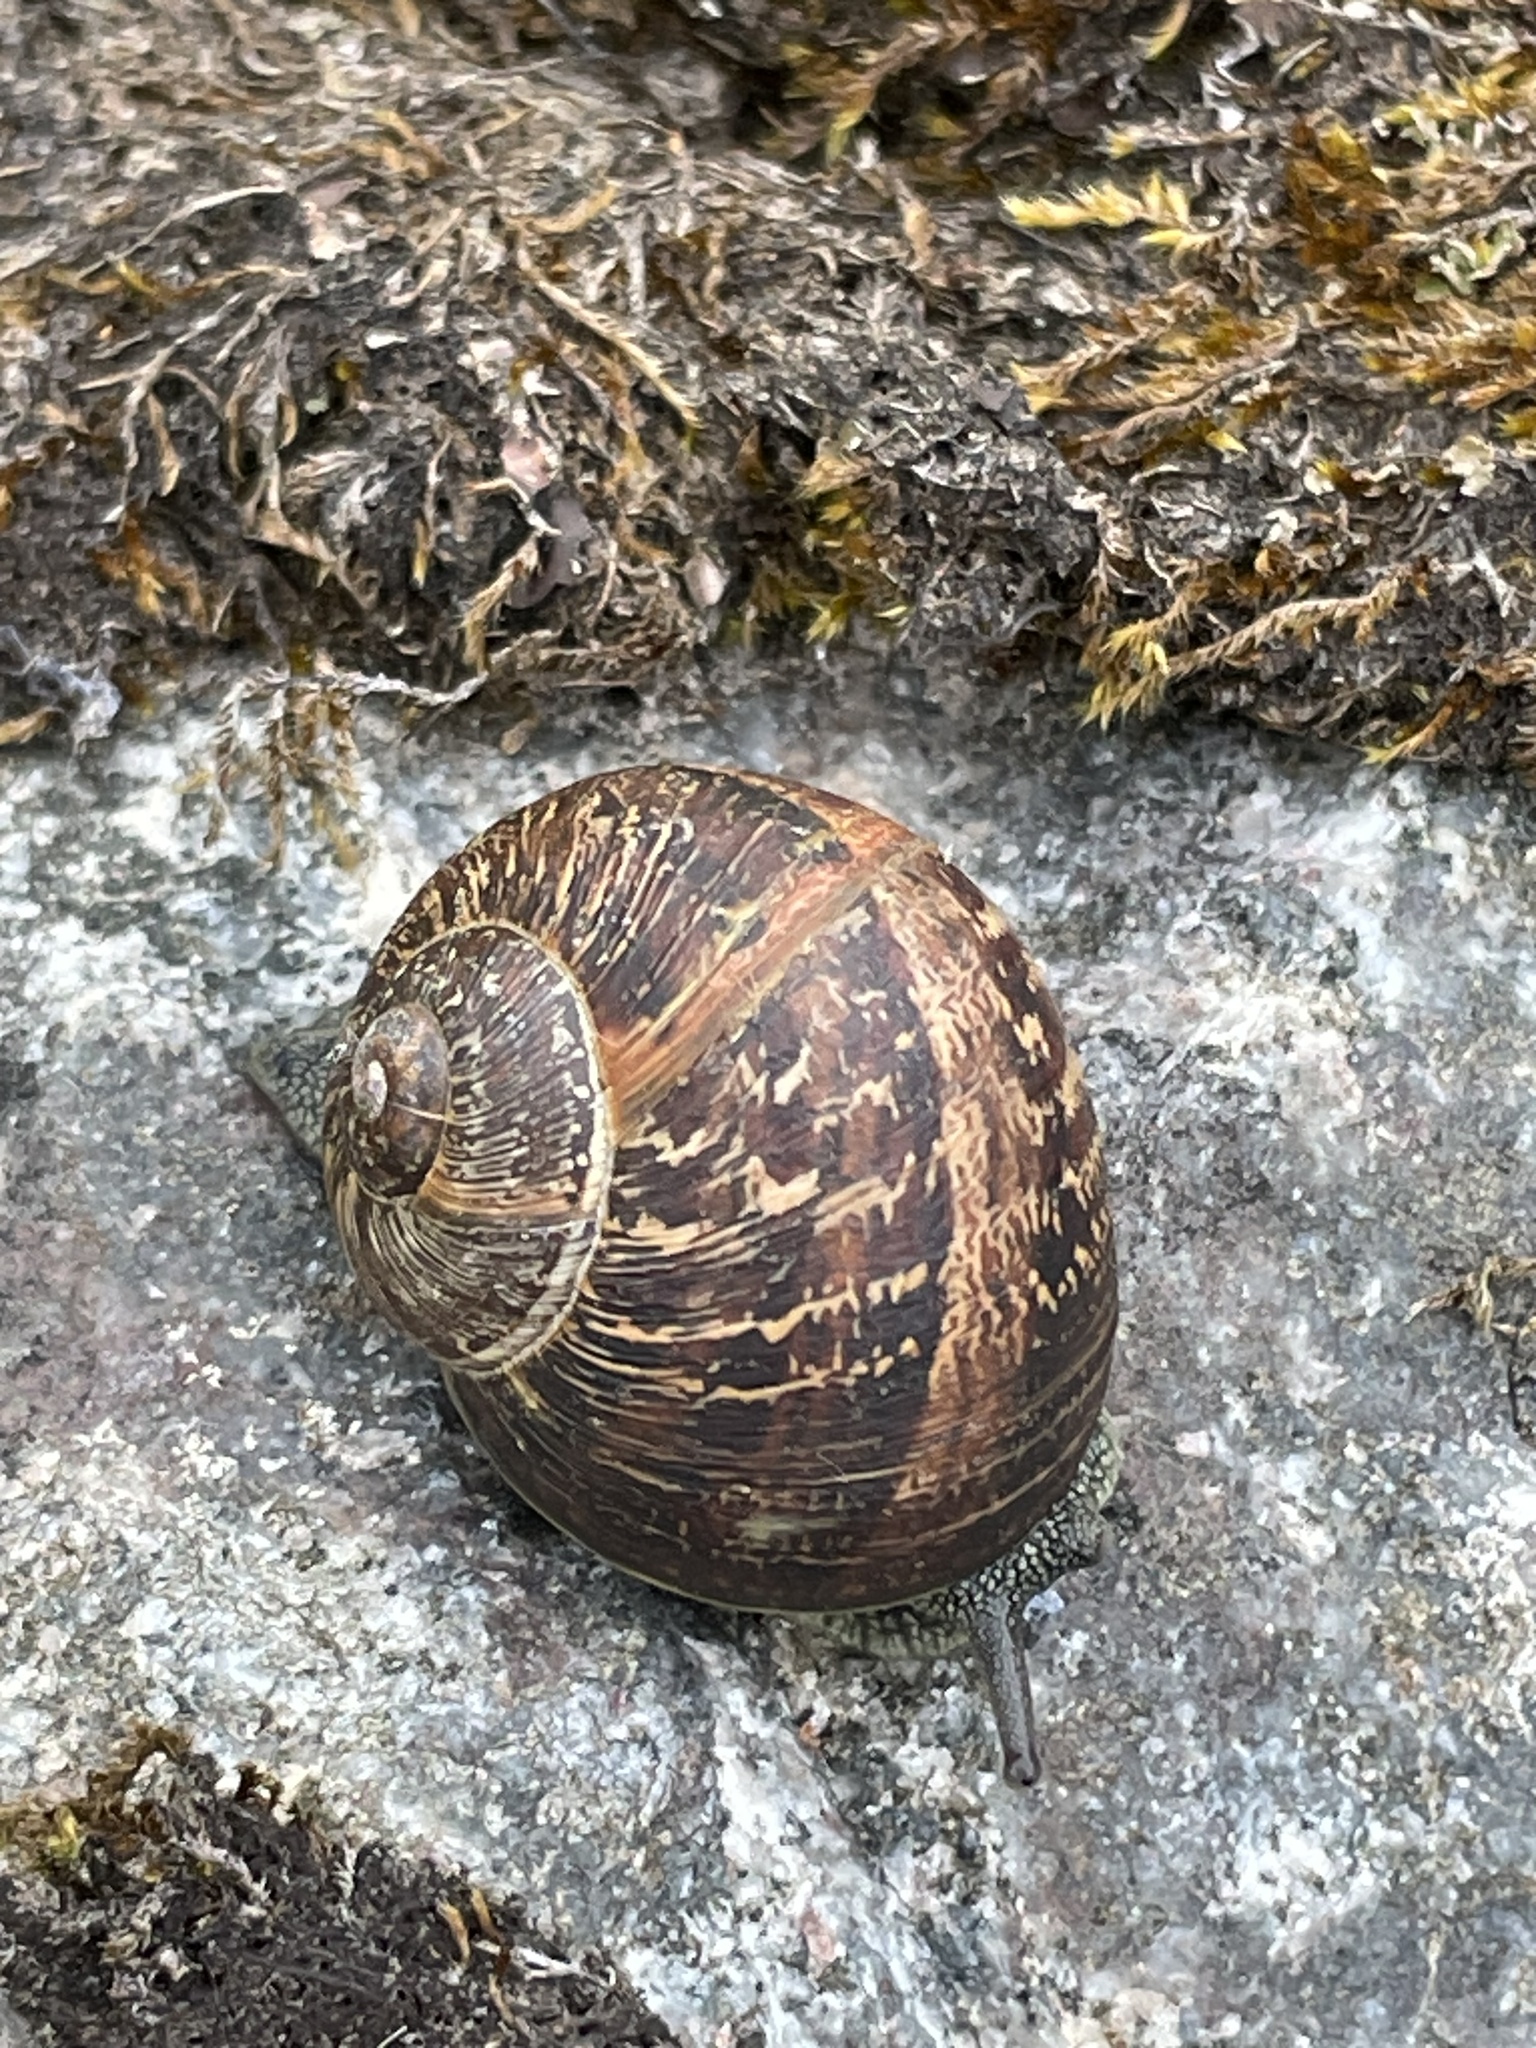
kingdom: Animalia
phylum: Mollusca
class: Gastropoda
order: Stylommatophora
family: Helicidae
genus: Cornu
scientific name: Cornu aspersum
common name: Brown garden snail
